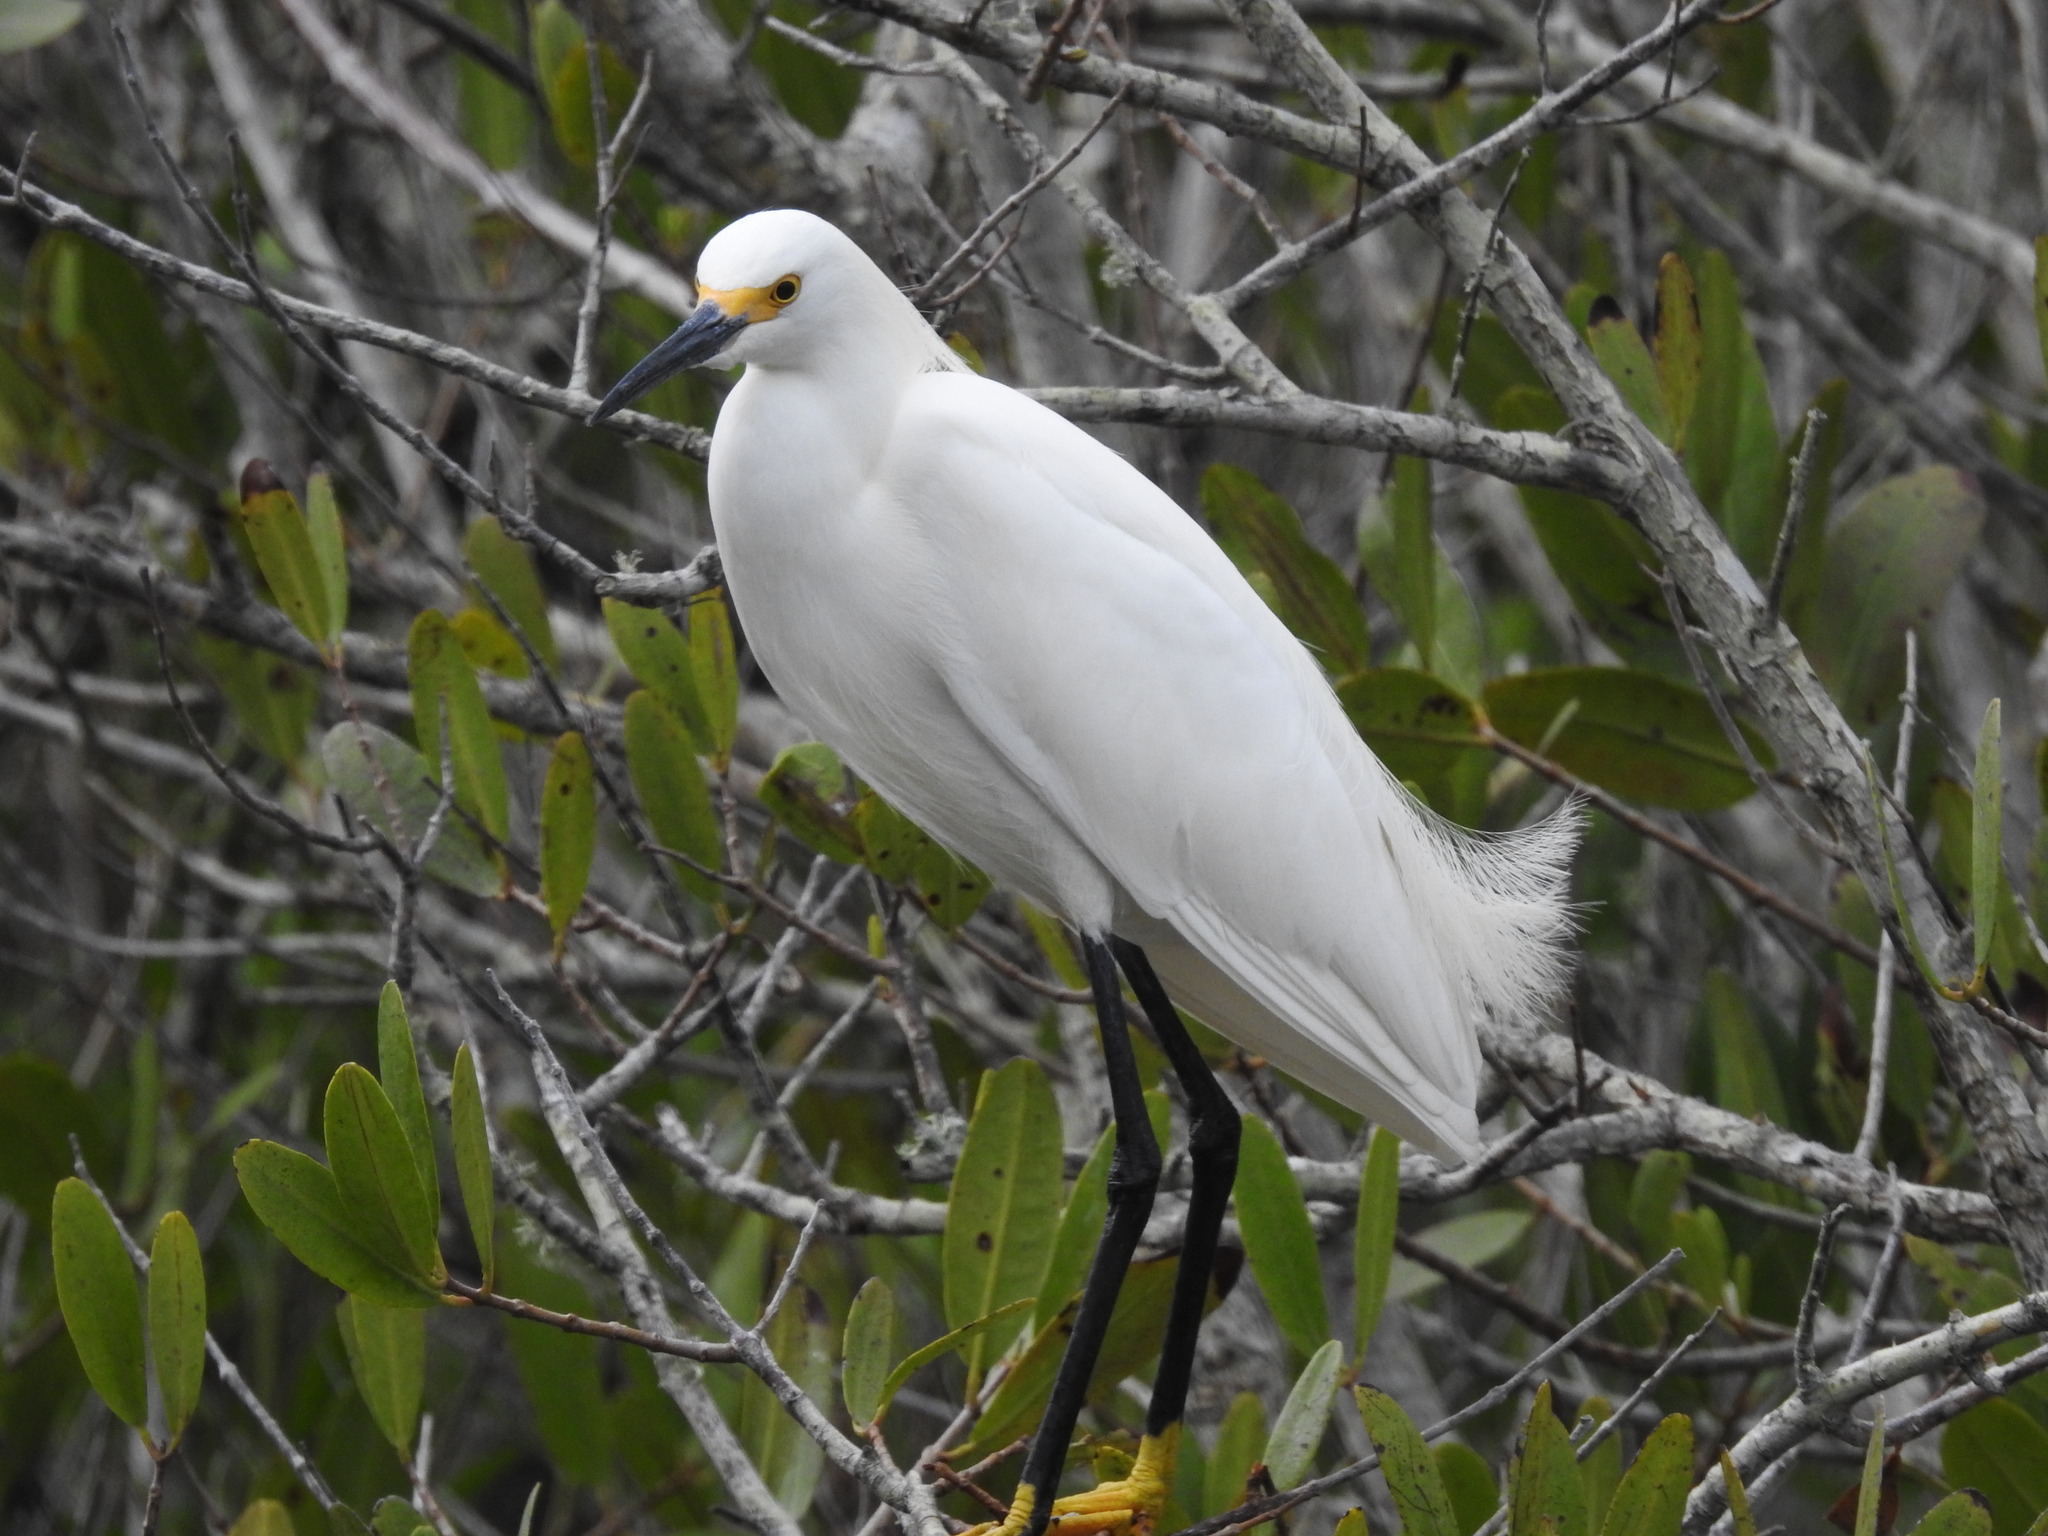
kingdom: Animalia
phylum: Chordata
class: Aves
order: Pelecaniformes
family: Ardeidae
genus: Egretta
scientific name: Egretta thula
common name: Snowy egret
